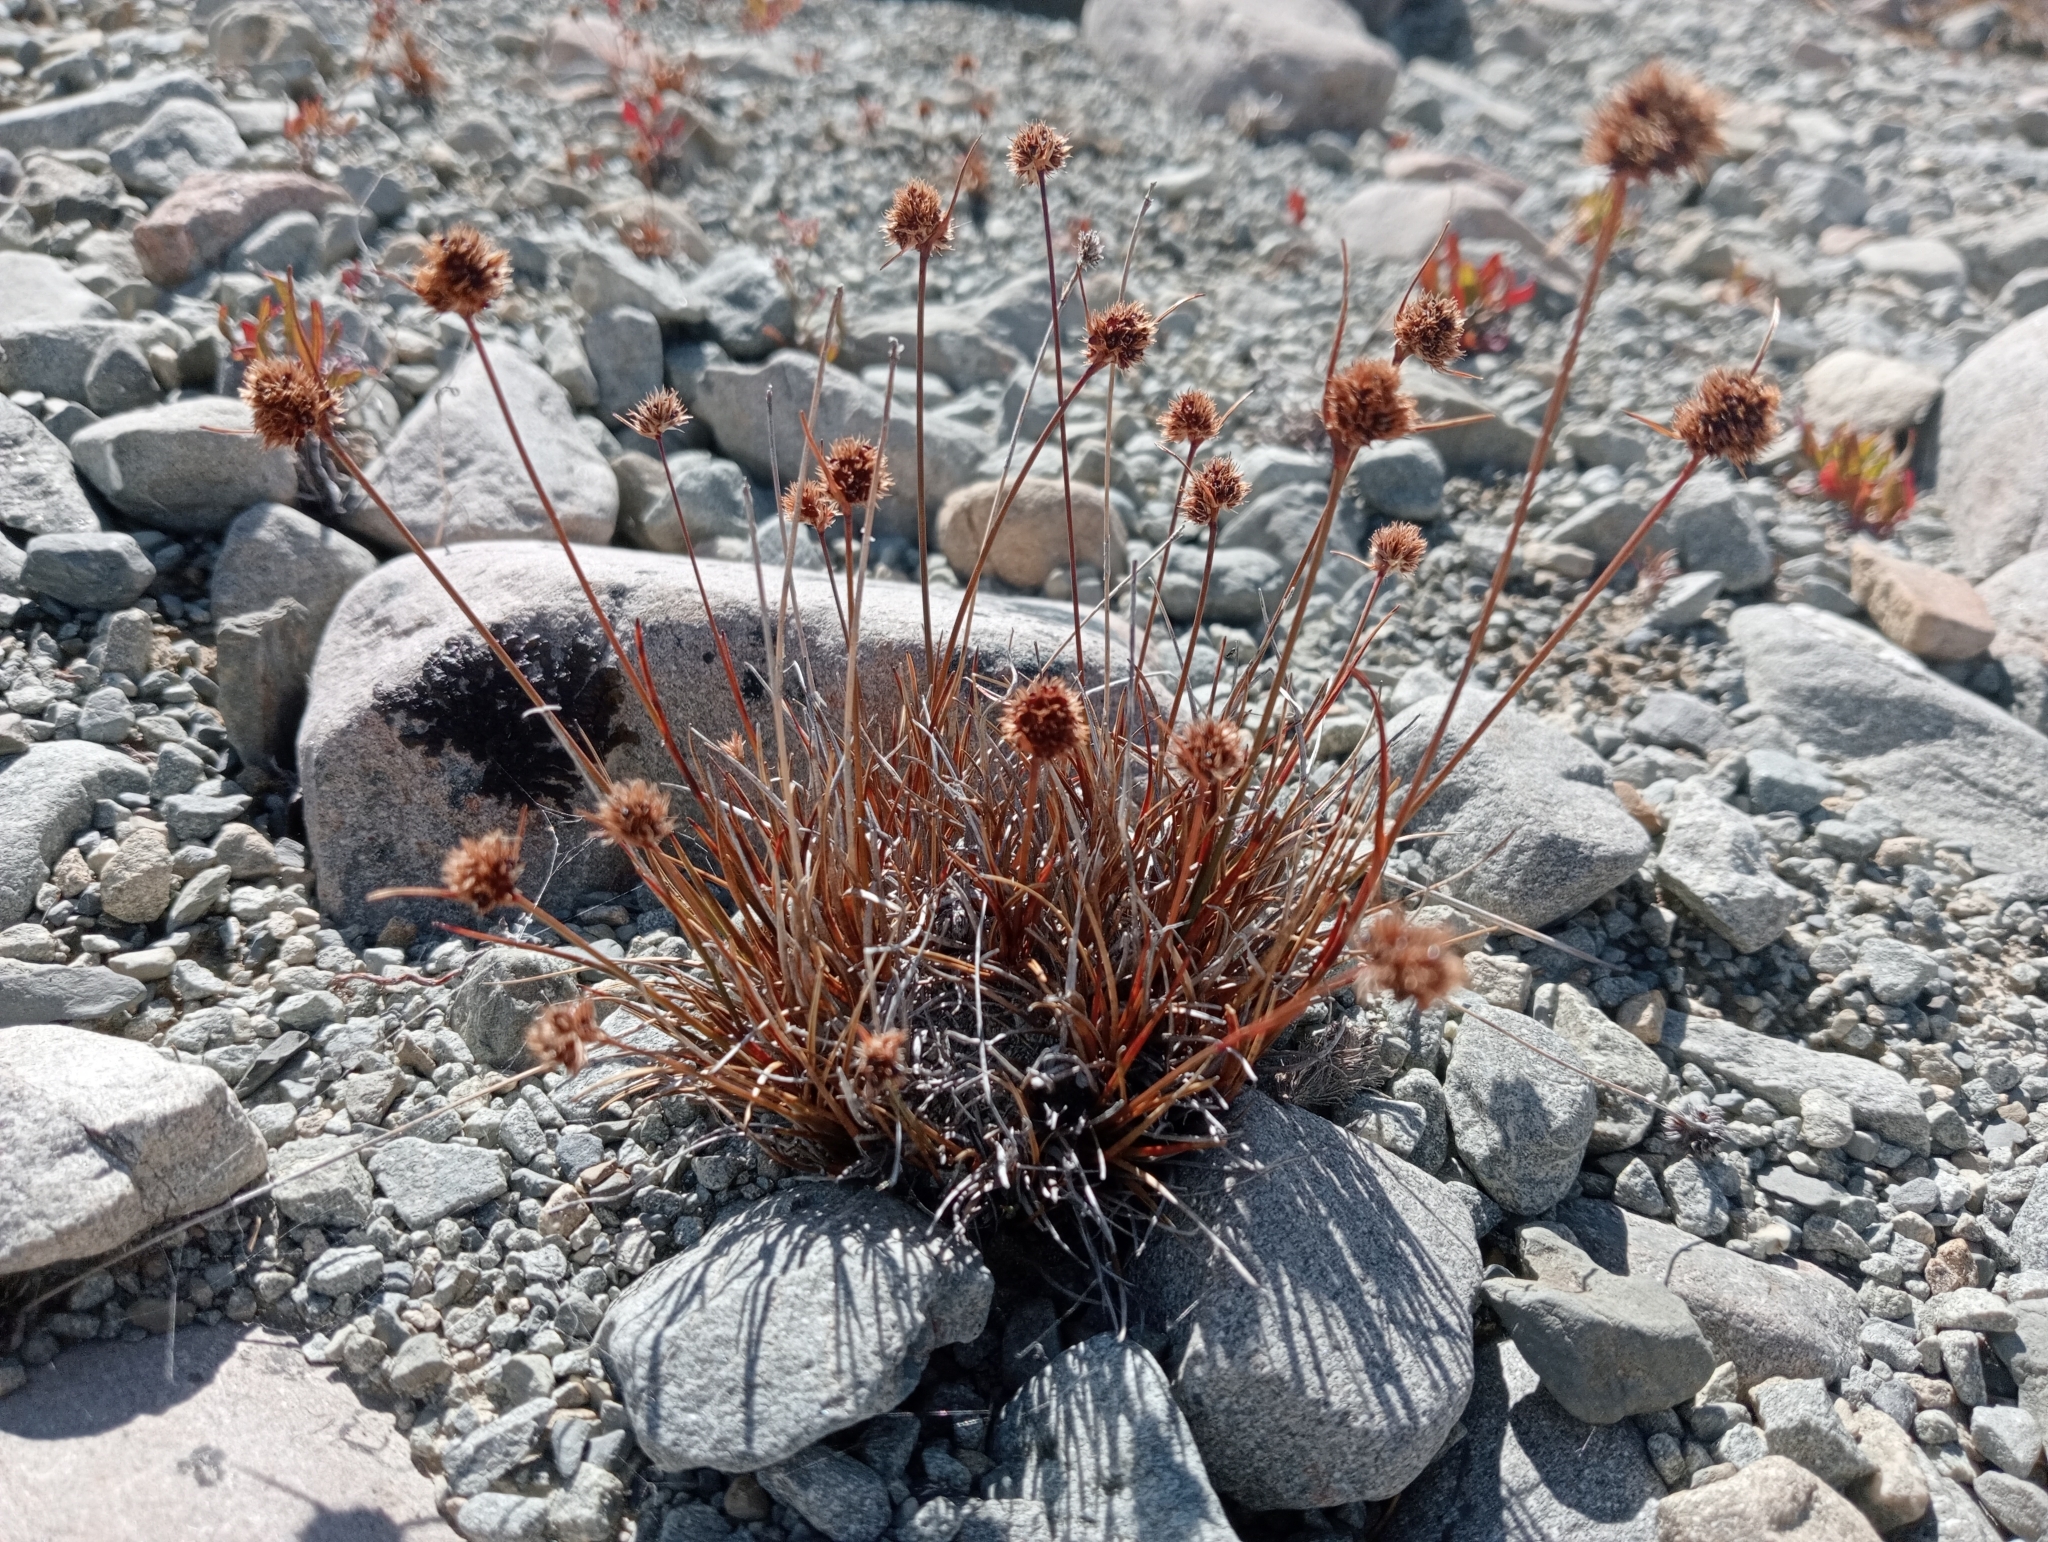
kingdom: Plantae
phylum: Tracheophyta
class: Liliopsida
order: Poales
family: Juncaceae
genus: Luzula
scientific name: Luzula pumila
